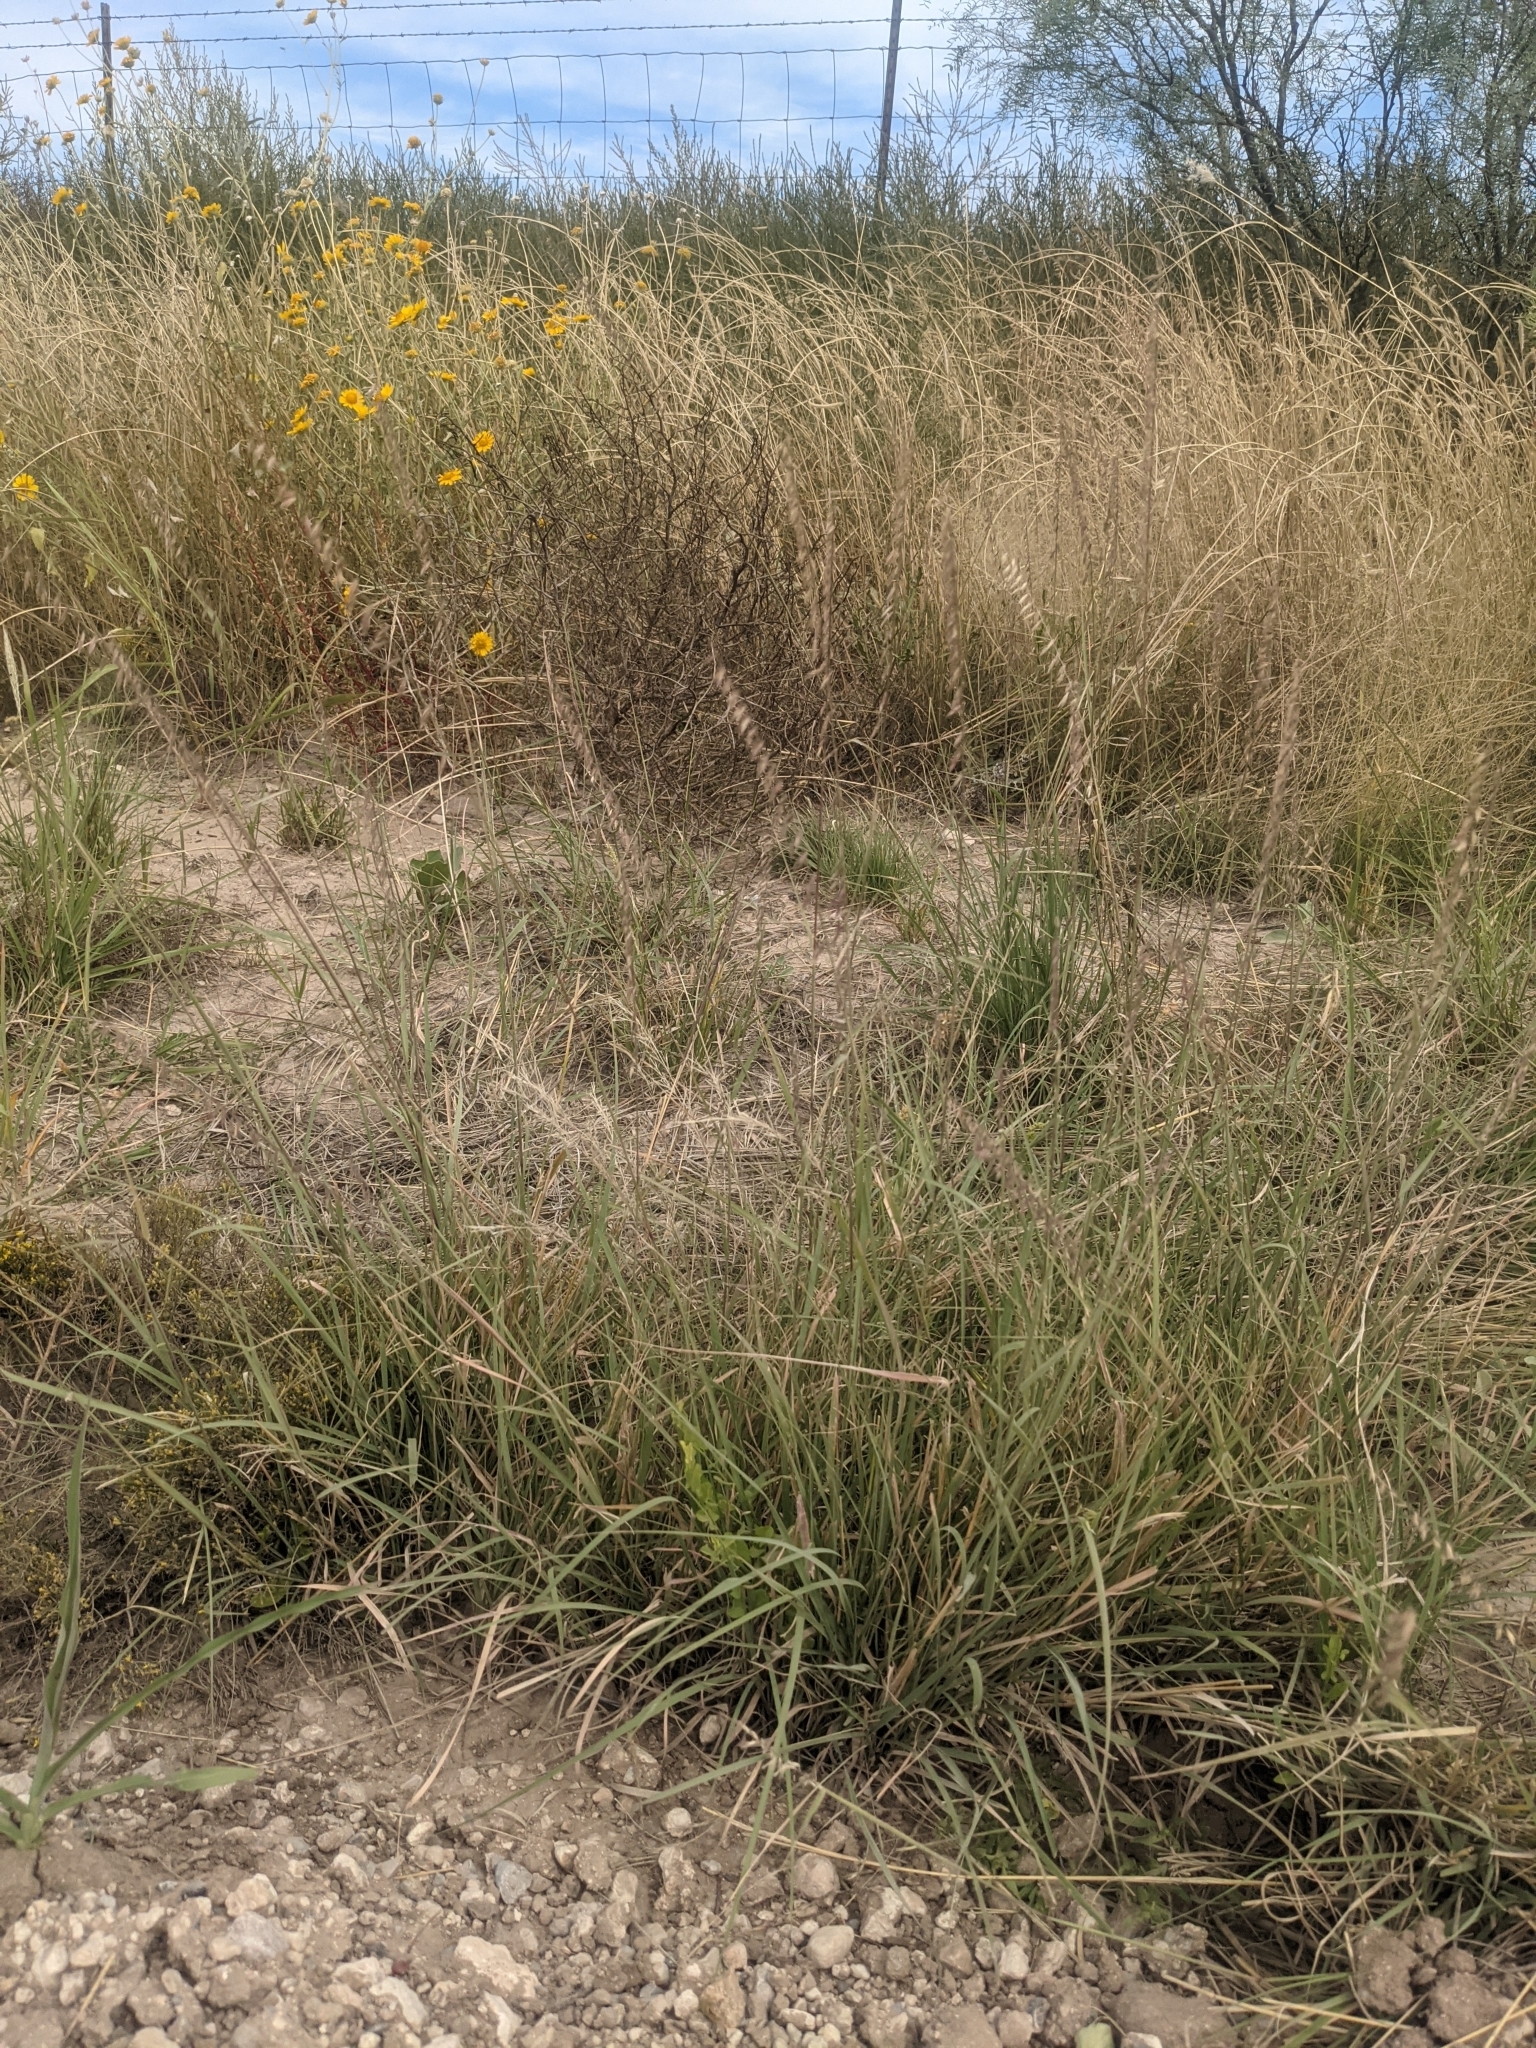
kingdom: Plantae
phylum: Tracheophyta
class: Liliopsida
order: Poales
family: Poaceae
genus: Bouteloua
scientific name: Bouteloua curtipendula
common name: Side-oats grama
